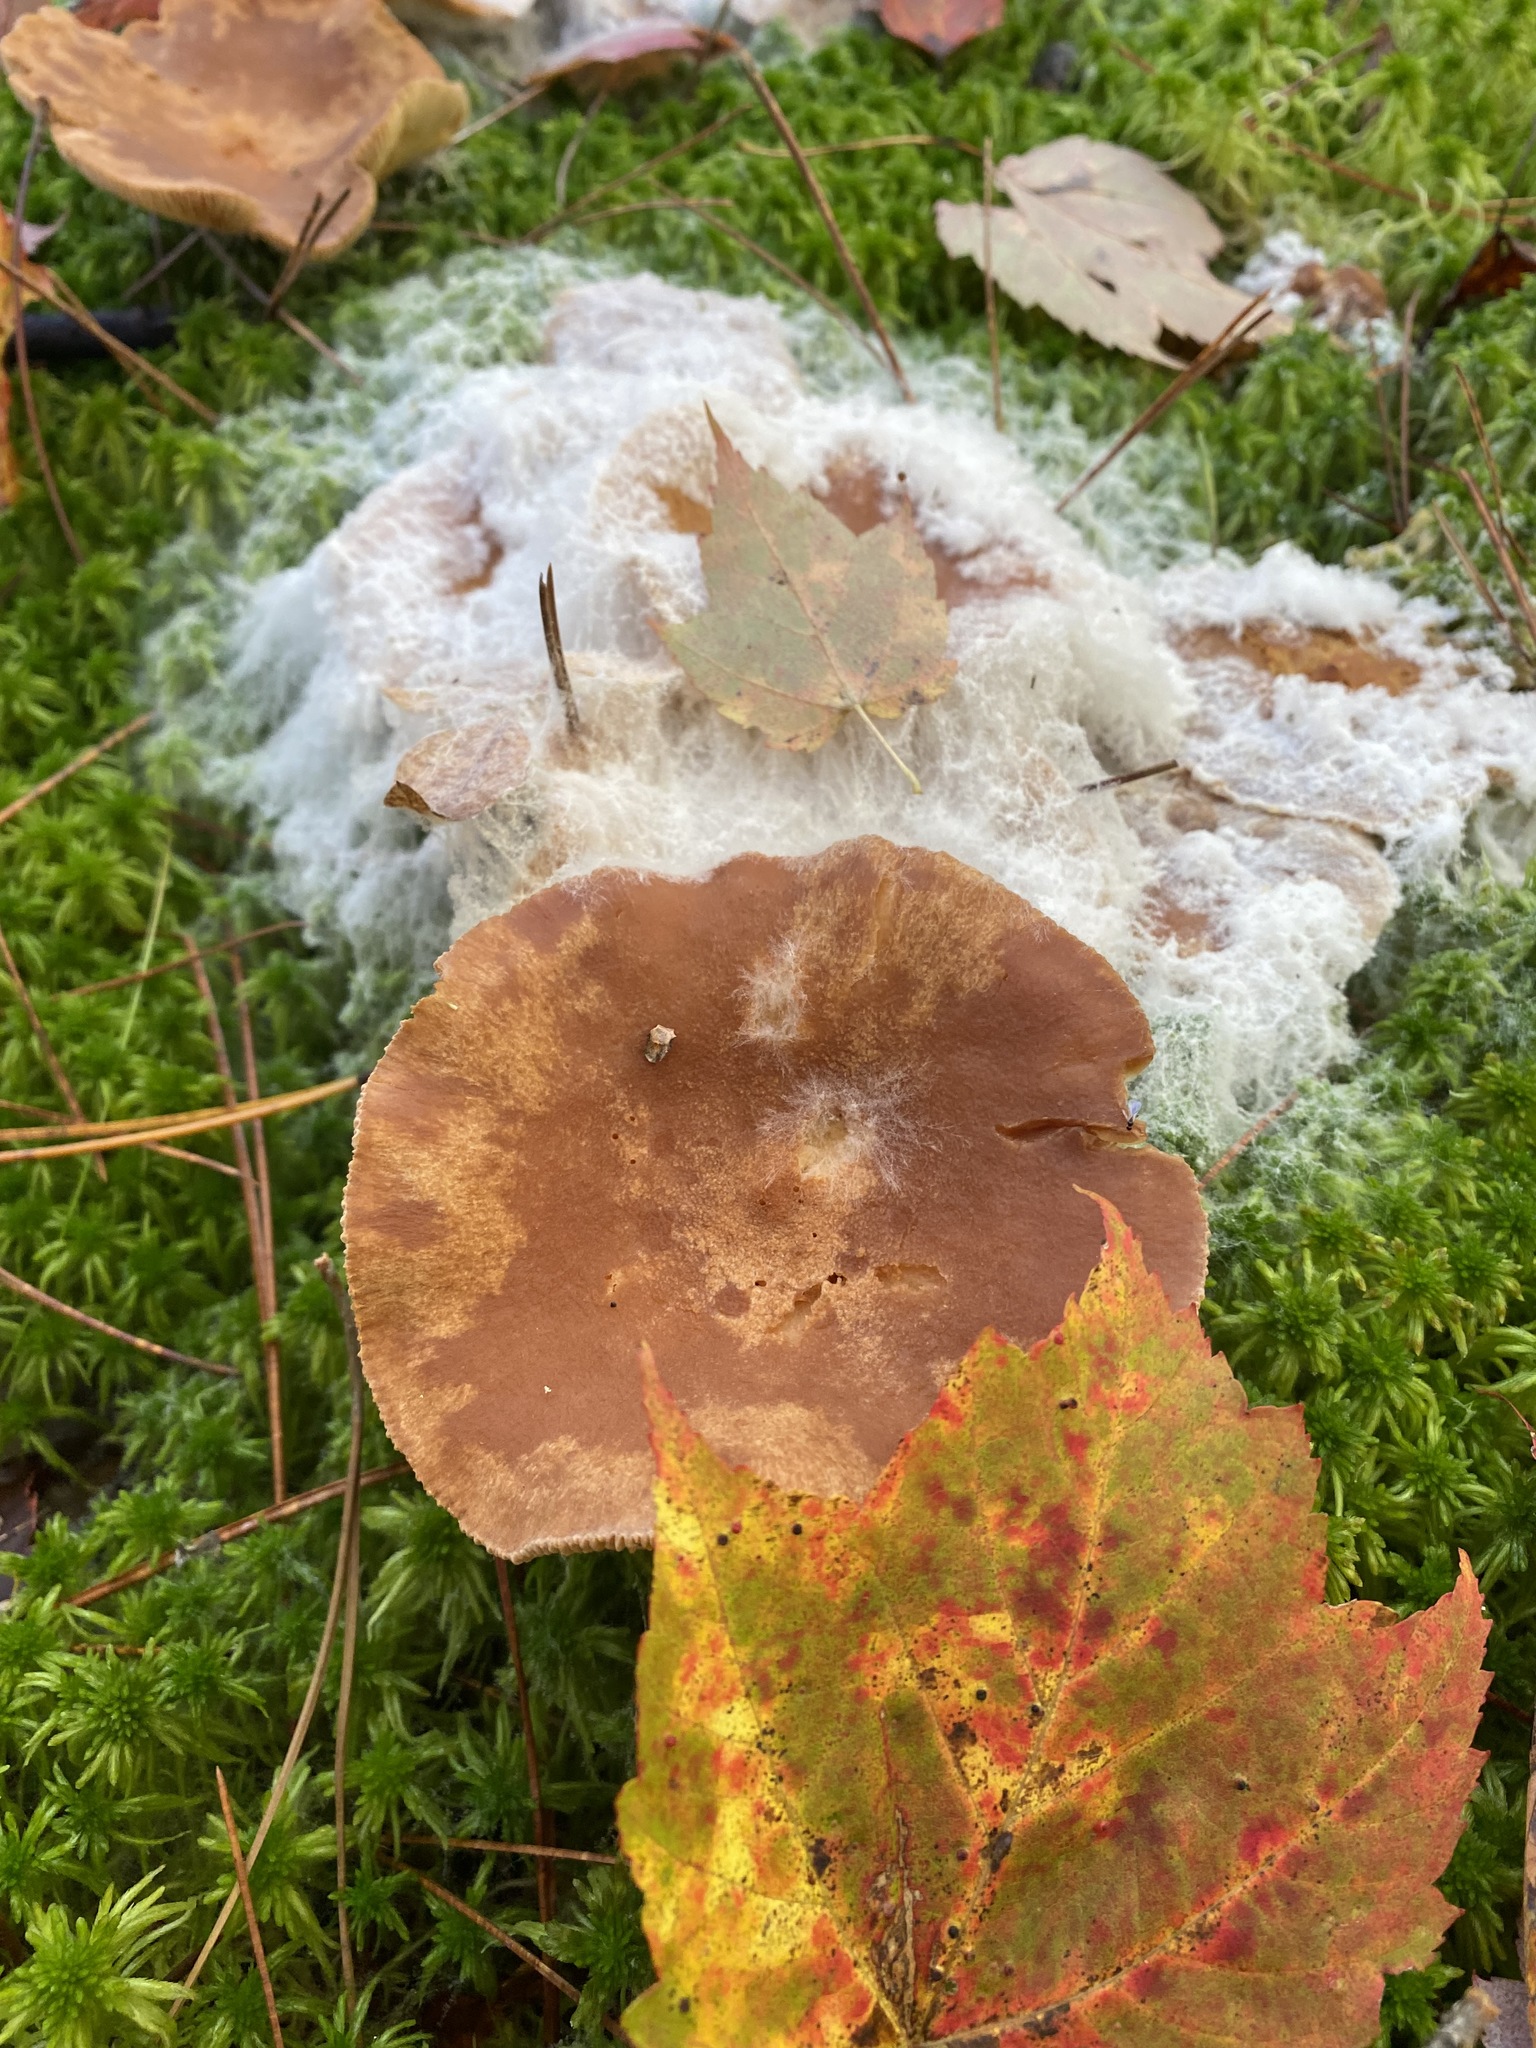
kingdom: Fungi
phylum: Mucoromycota
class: Mucoromycetes
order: Mucorales
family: Rhizopodaceae
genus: Syzygites
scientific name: Syzygites megalocarpus
